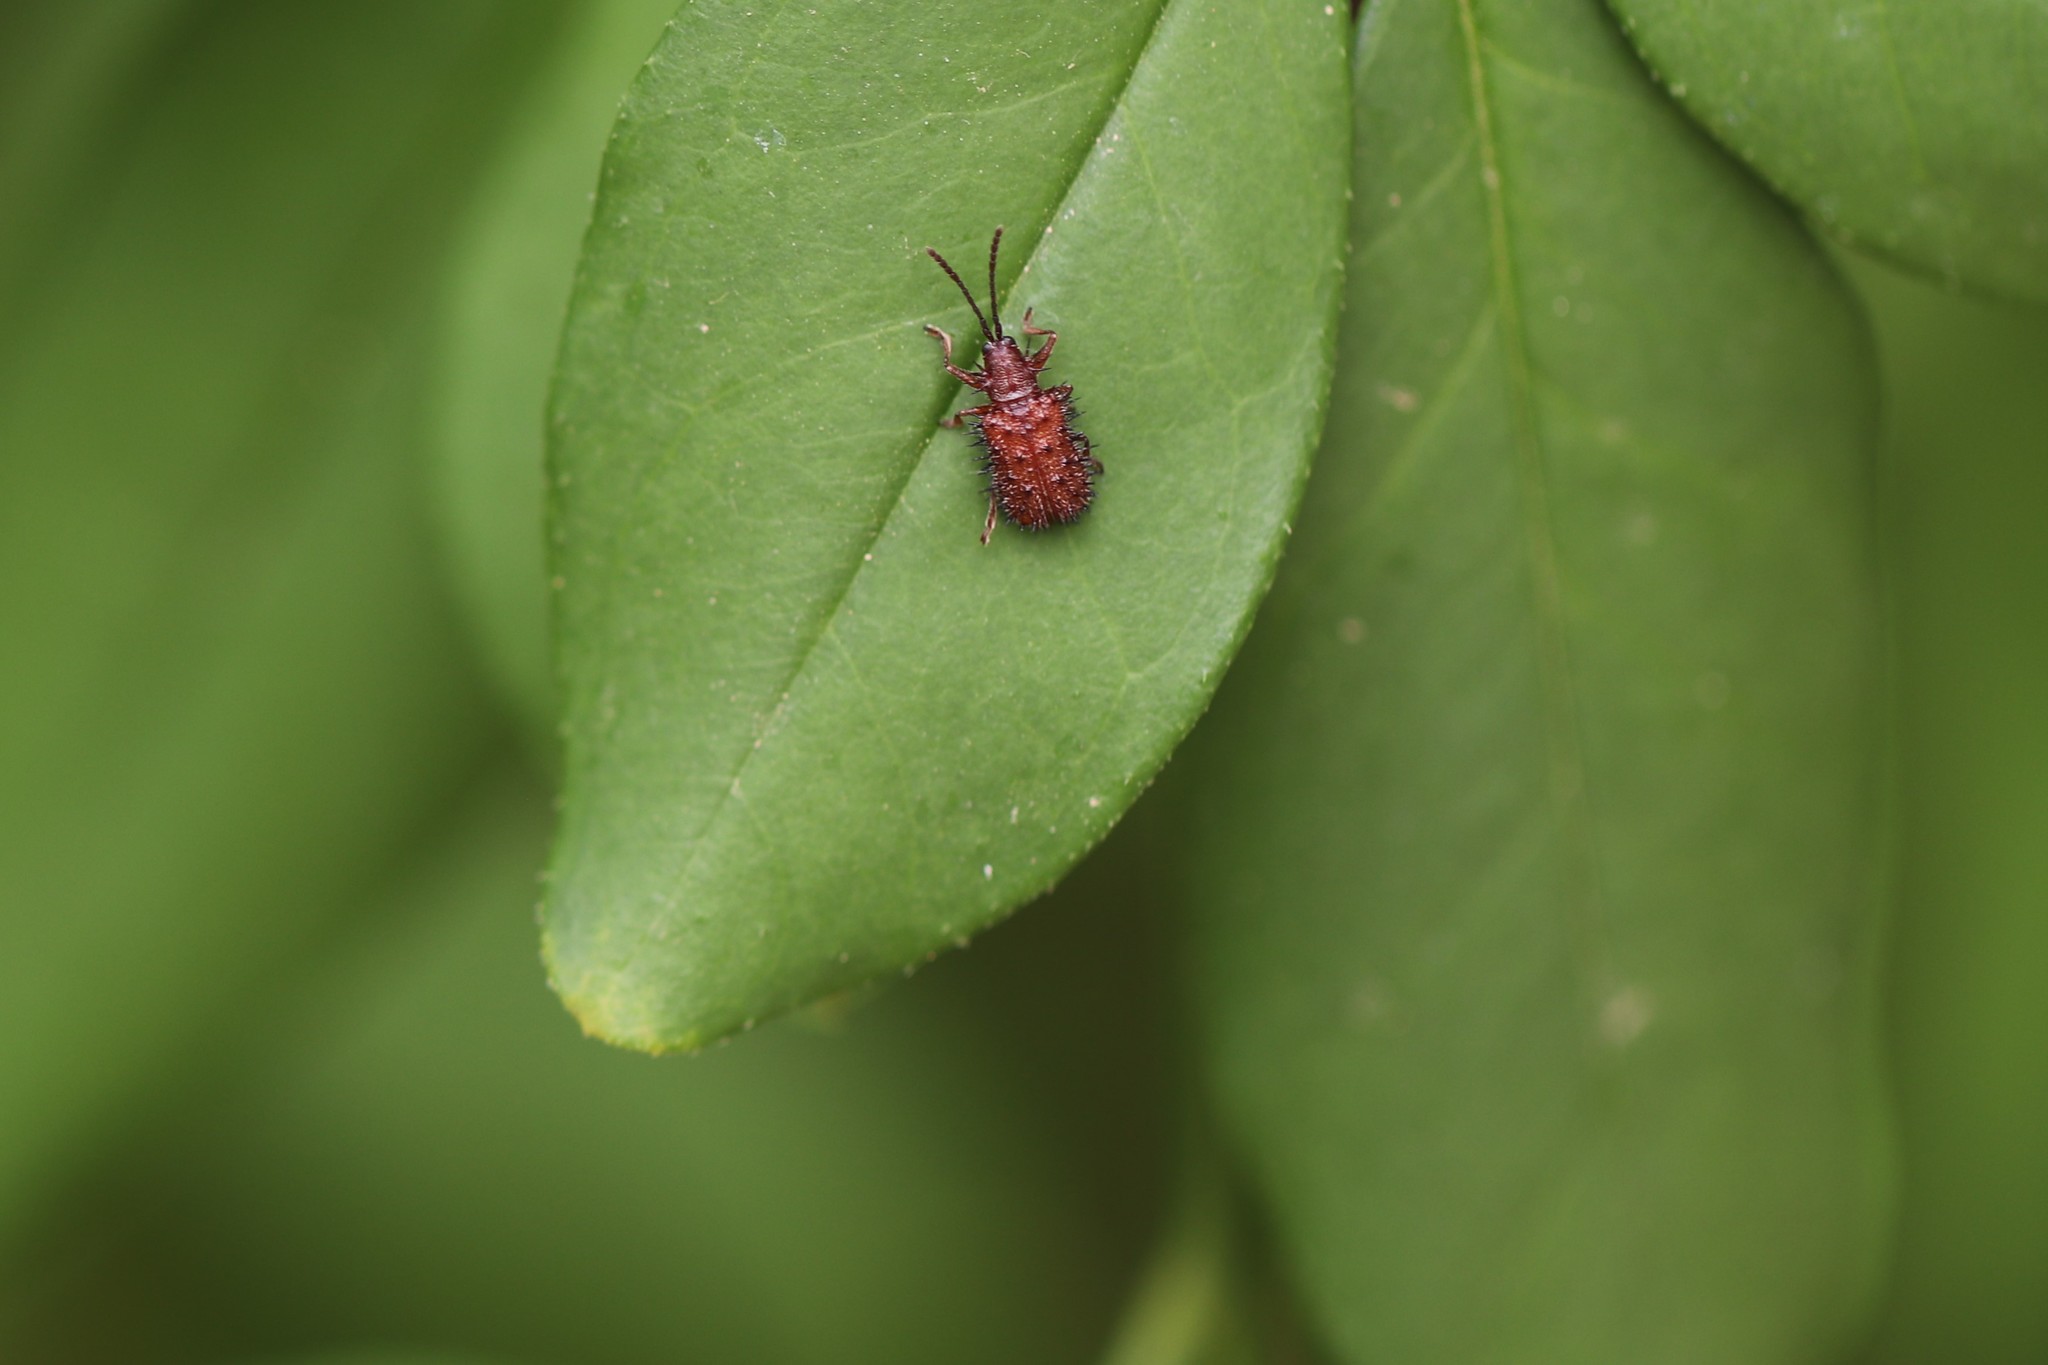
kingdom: Animalia
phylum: Arthropoda
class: Insecta
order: Coleoptera
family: Chrysomelidae
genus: Dicladispa
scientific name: Dicladispa testacea
